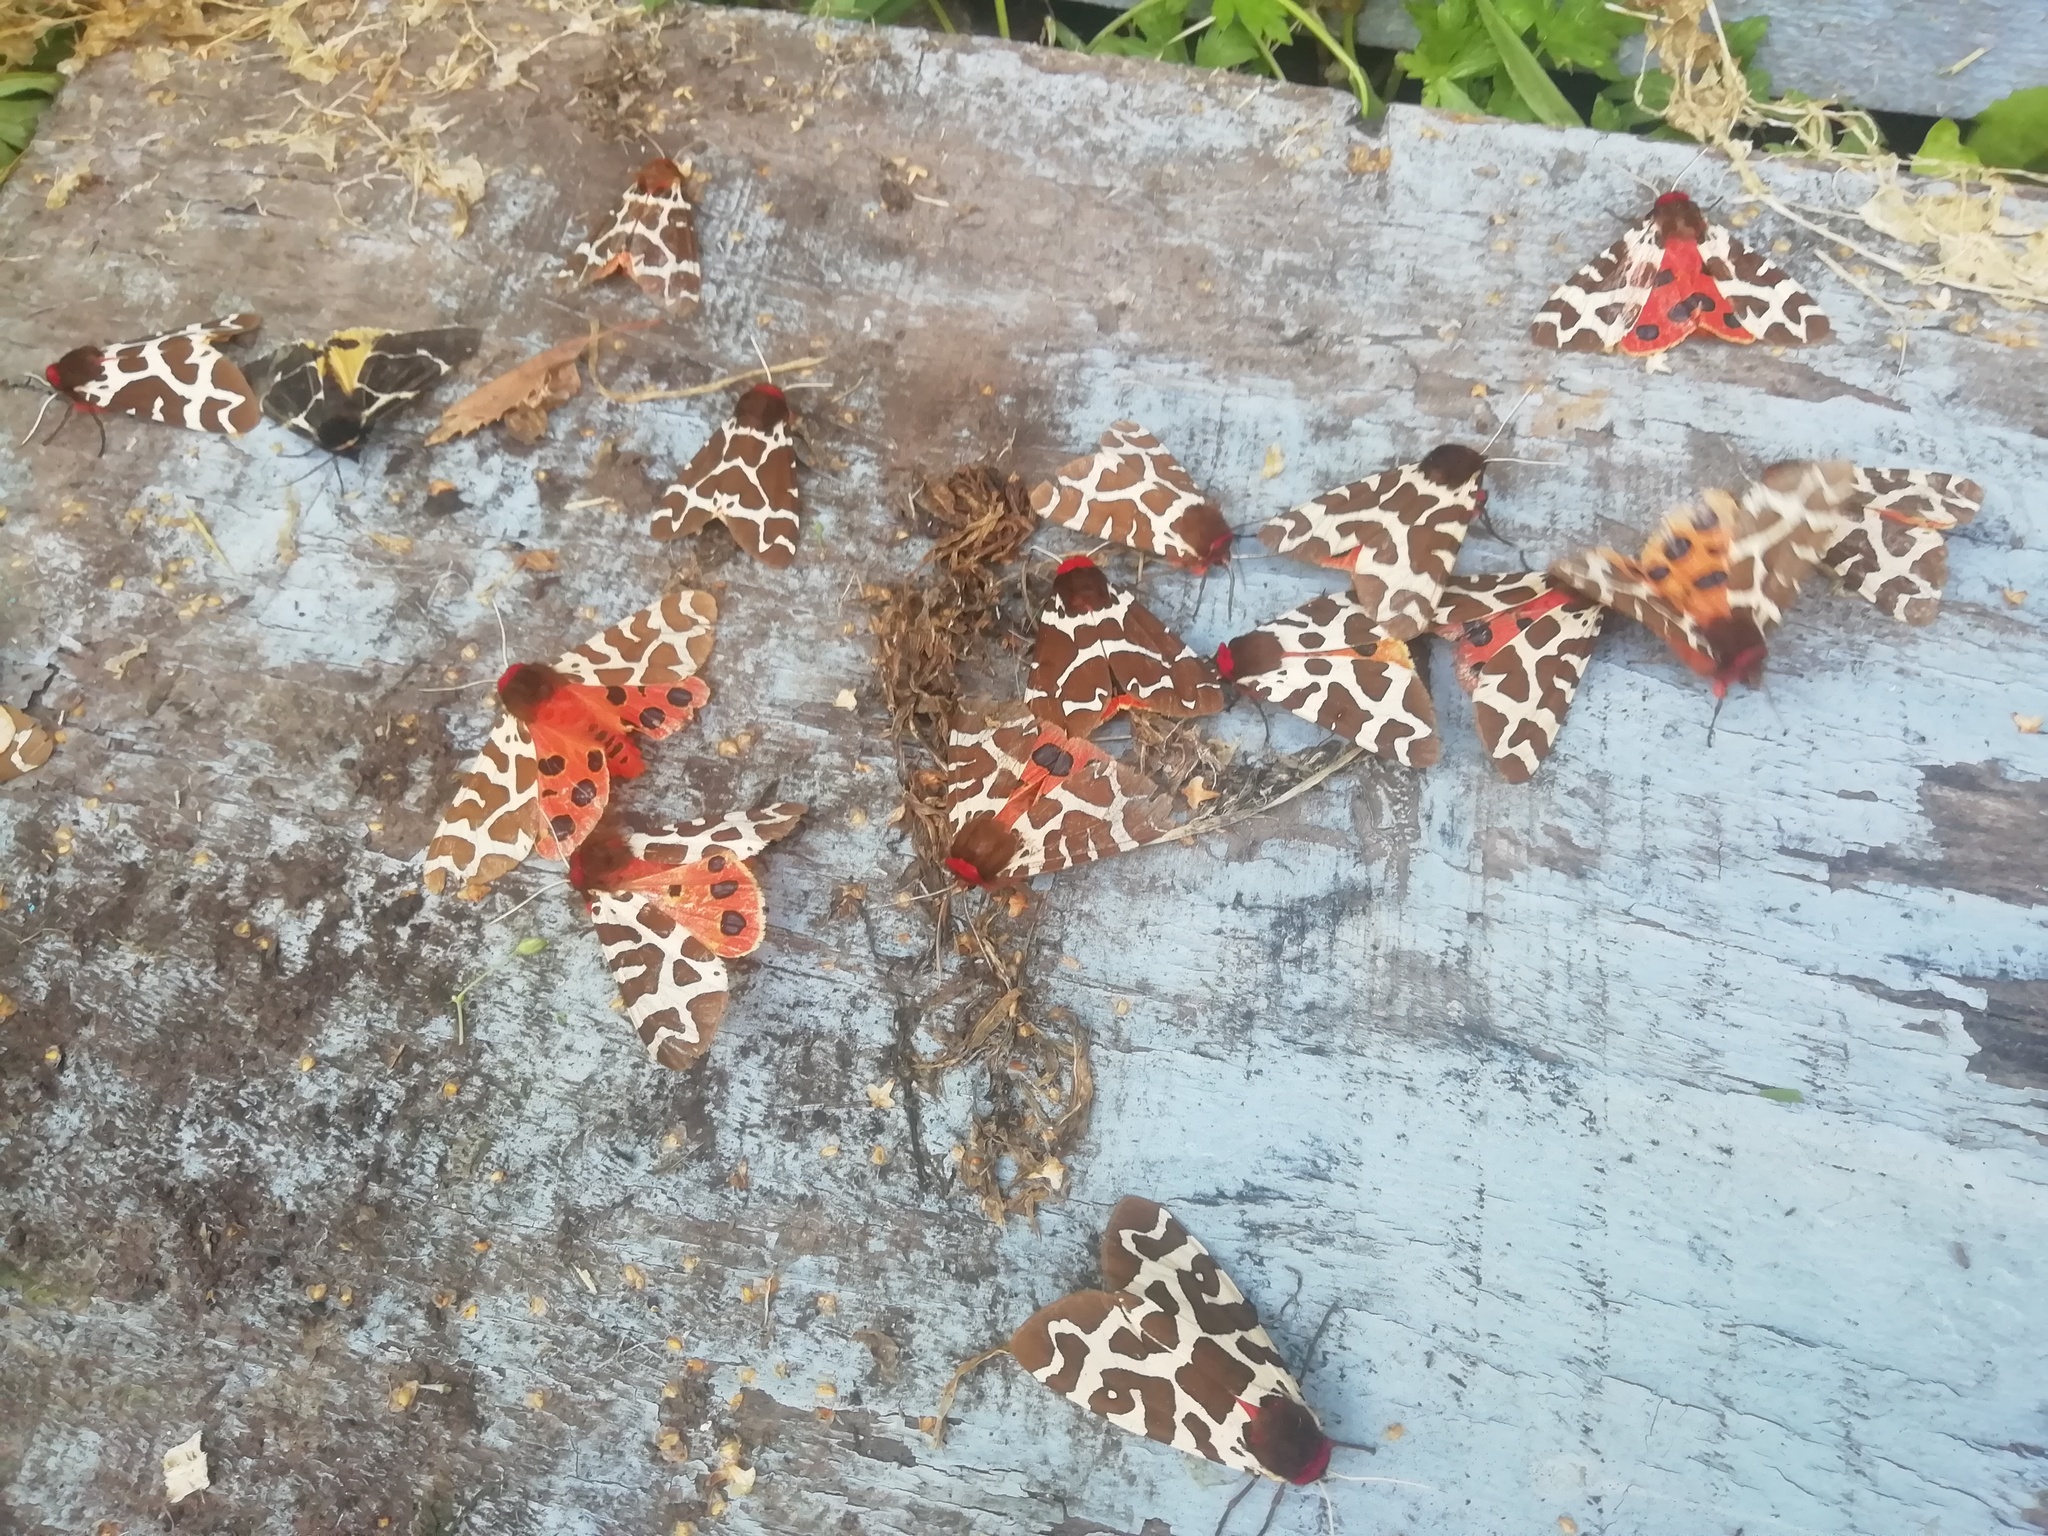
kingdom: Animalia
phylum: Arthropoda
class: Insecta
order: Lepidoptera
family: Erebidae
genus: Arctia
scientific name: Arctia caja
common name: Garden tiger
